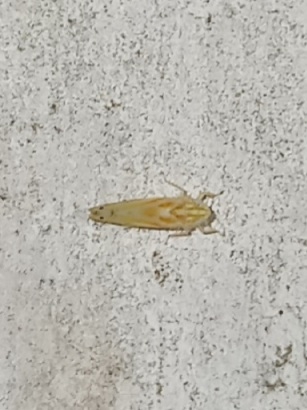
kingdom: Animalia
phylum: Arthropoda
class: Insecta
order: Hemiptera
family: Cicadellidae
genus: Alconeura
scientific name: Alconeura macra
